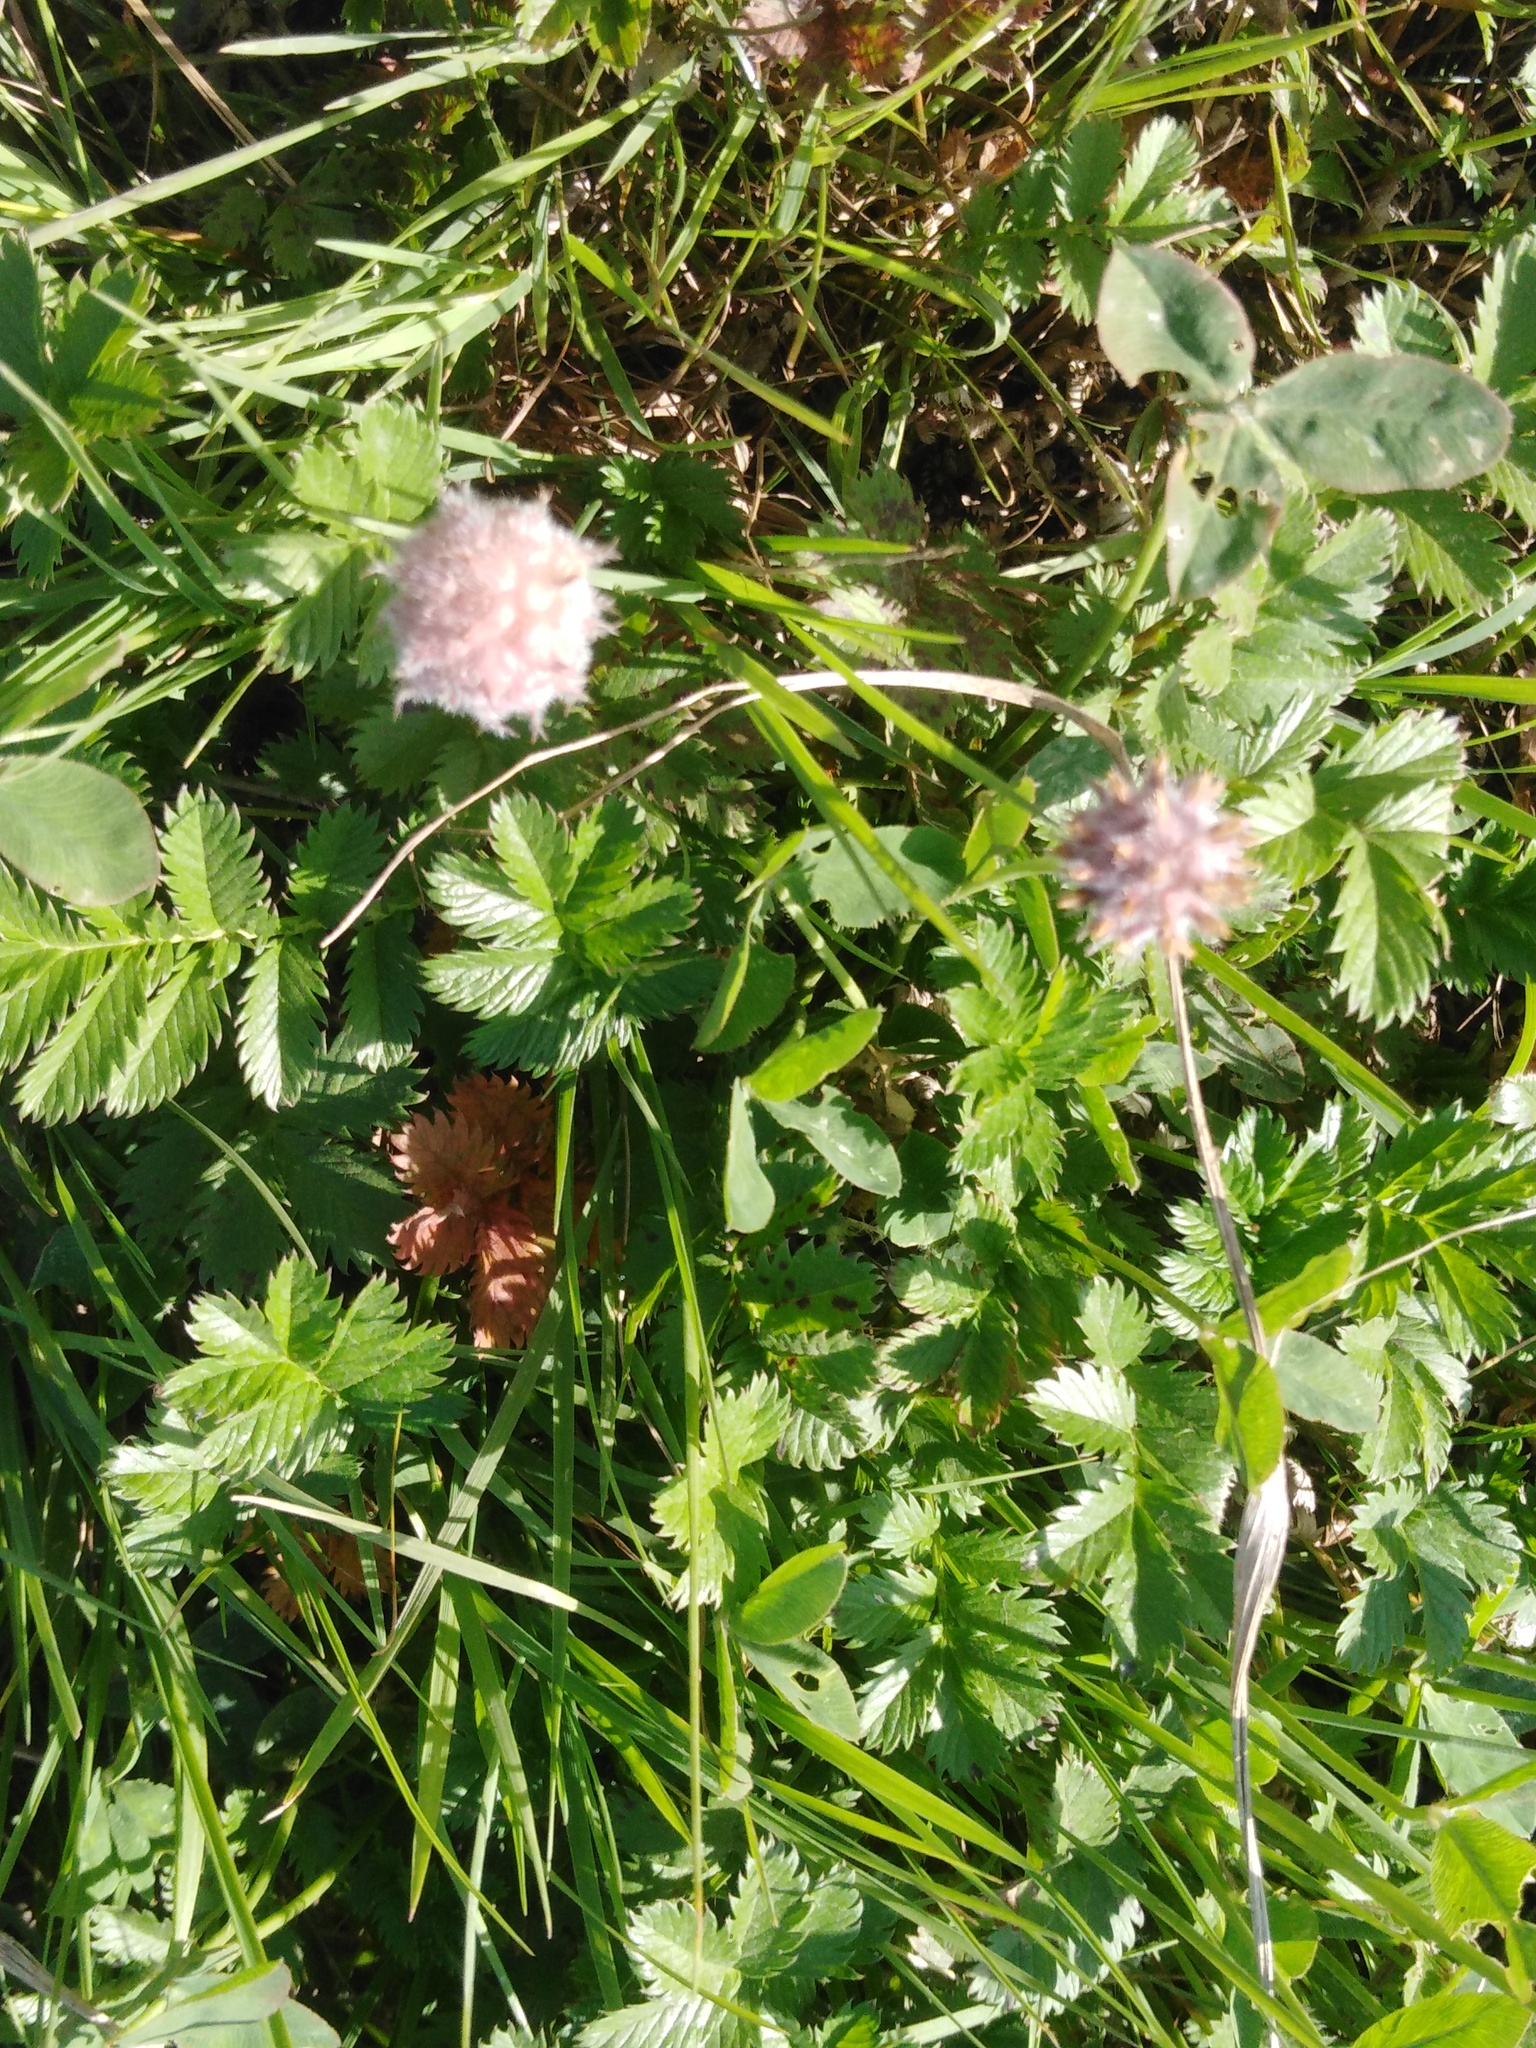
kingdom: Plantae
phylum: Tracheophyta
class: Magnoliopsida
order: Fabales
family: Fabaceae
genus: Trifolium
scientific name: Trifolium fragiferum
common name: Strawberry clover
